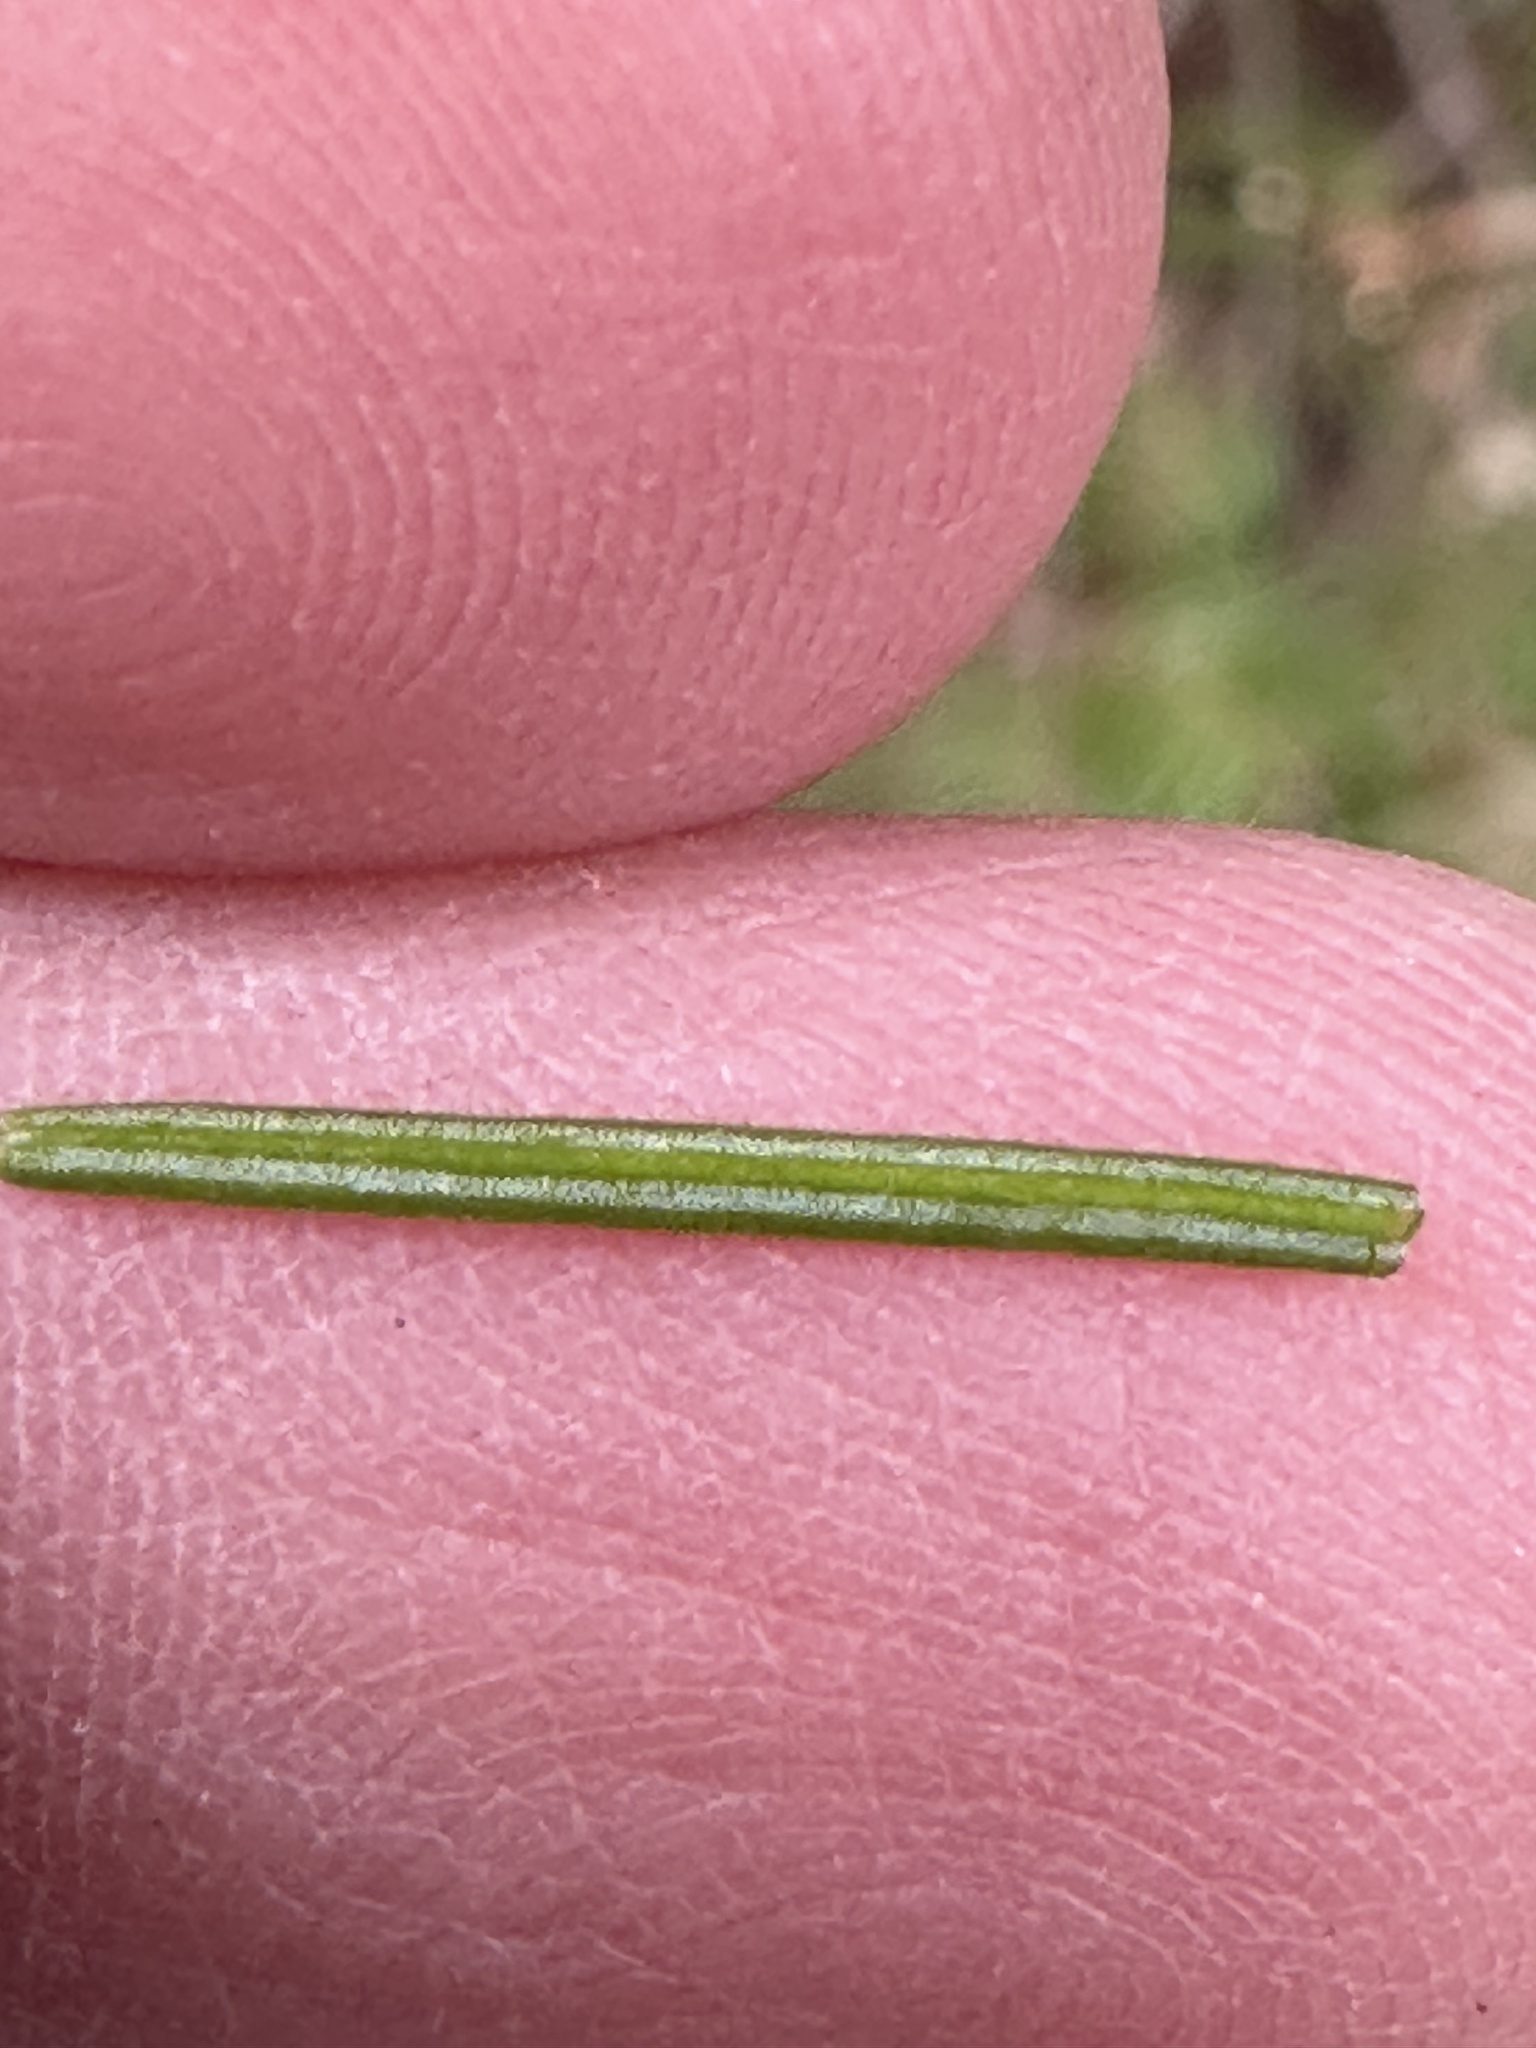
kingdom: Plantae
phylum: Tracheophyta
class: Pinopsida
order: Pinales
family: Pinaceae
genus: Abies
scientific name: Abies balsamea
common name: Balsam fir
